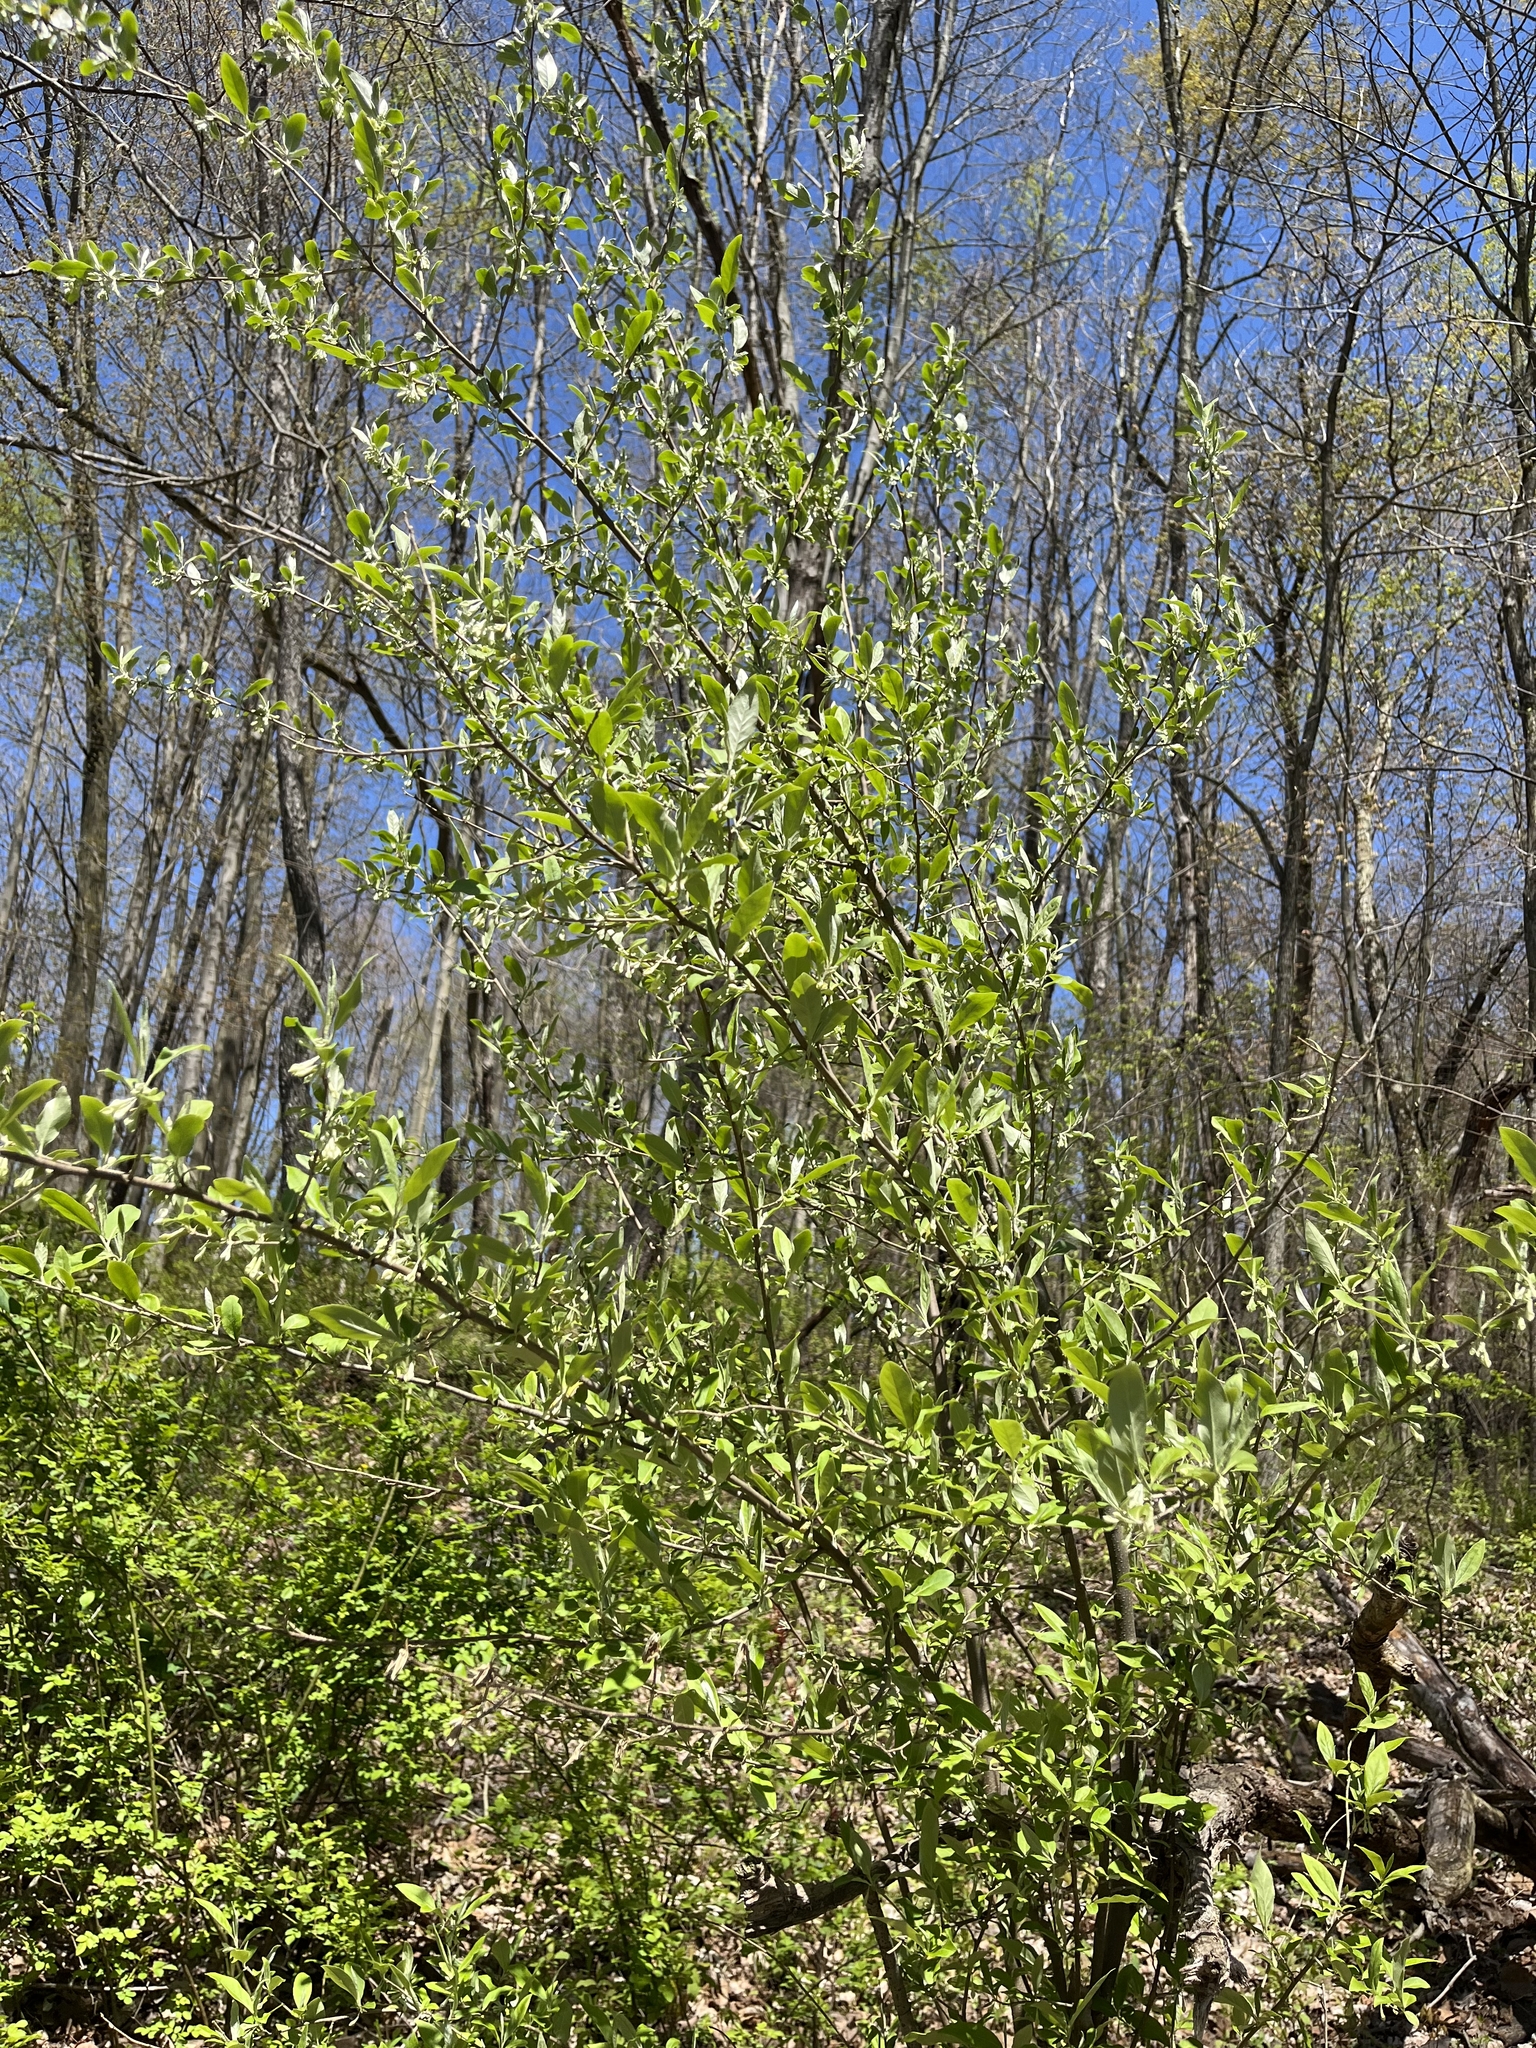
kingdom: Plantae
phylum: Tracheophyta
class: Magnoliopsida
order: Rosales
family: Elaeagnaceae
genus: Elaeagnus
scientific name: Elaeagnus umbellata
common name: Autumn olive
